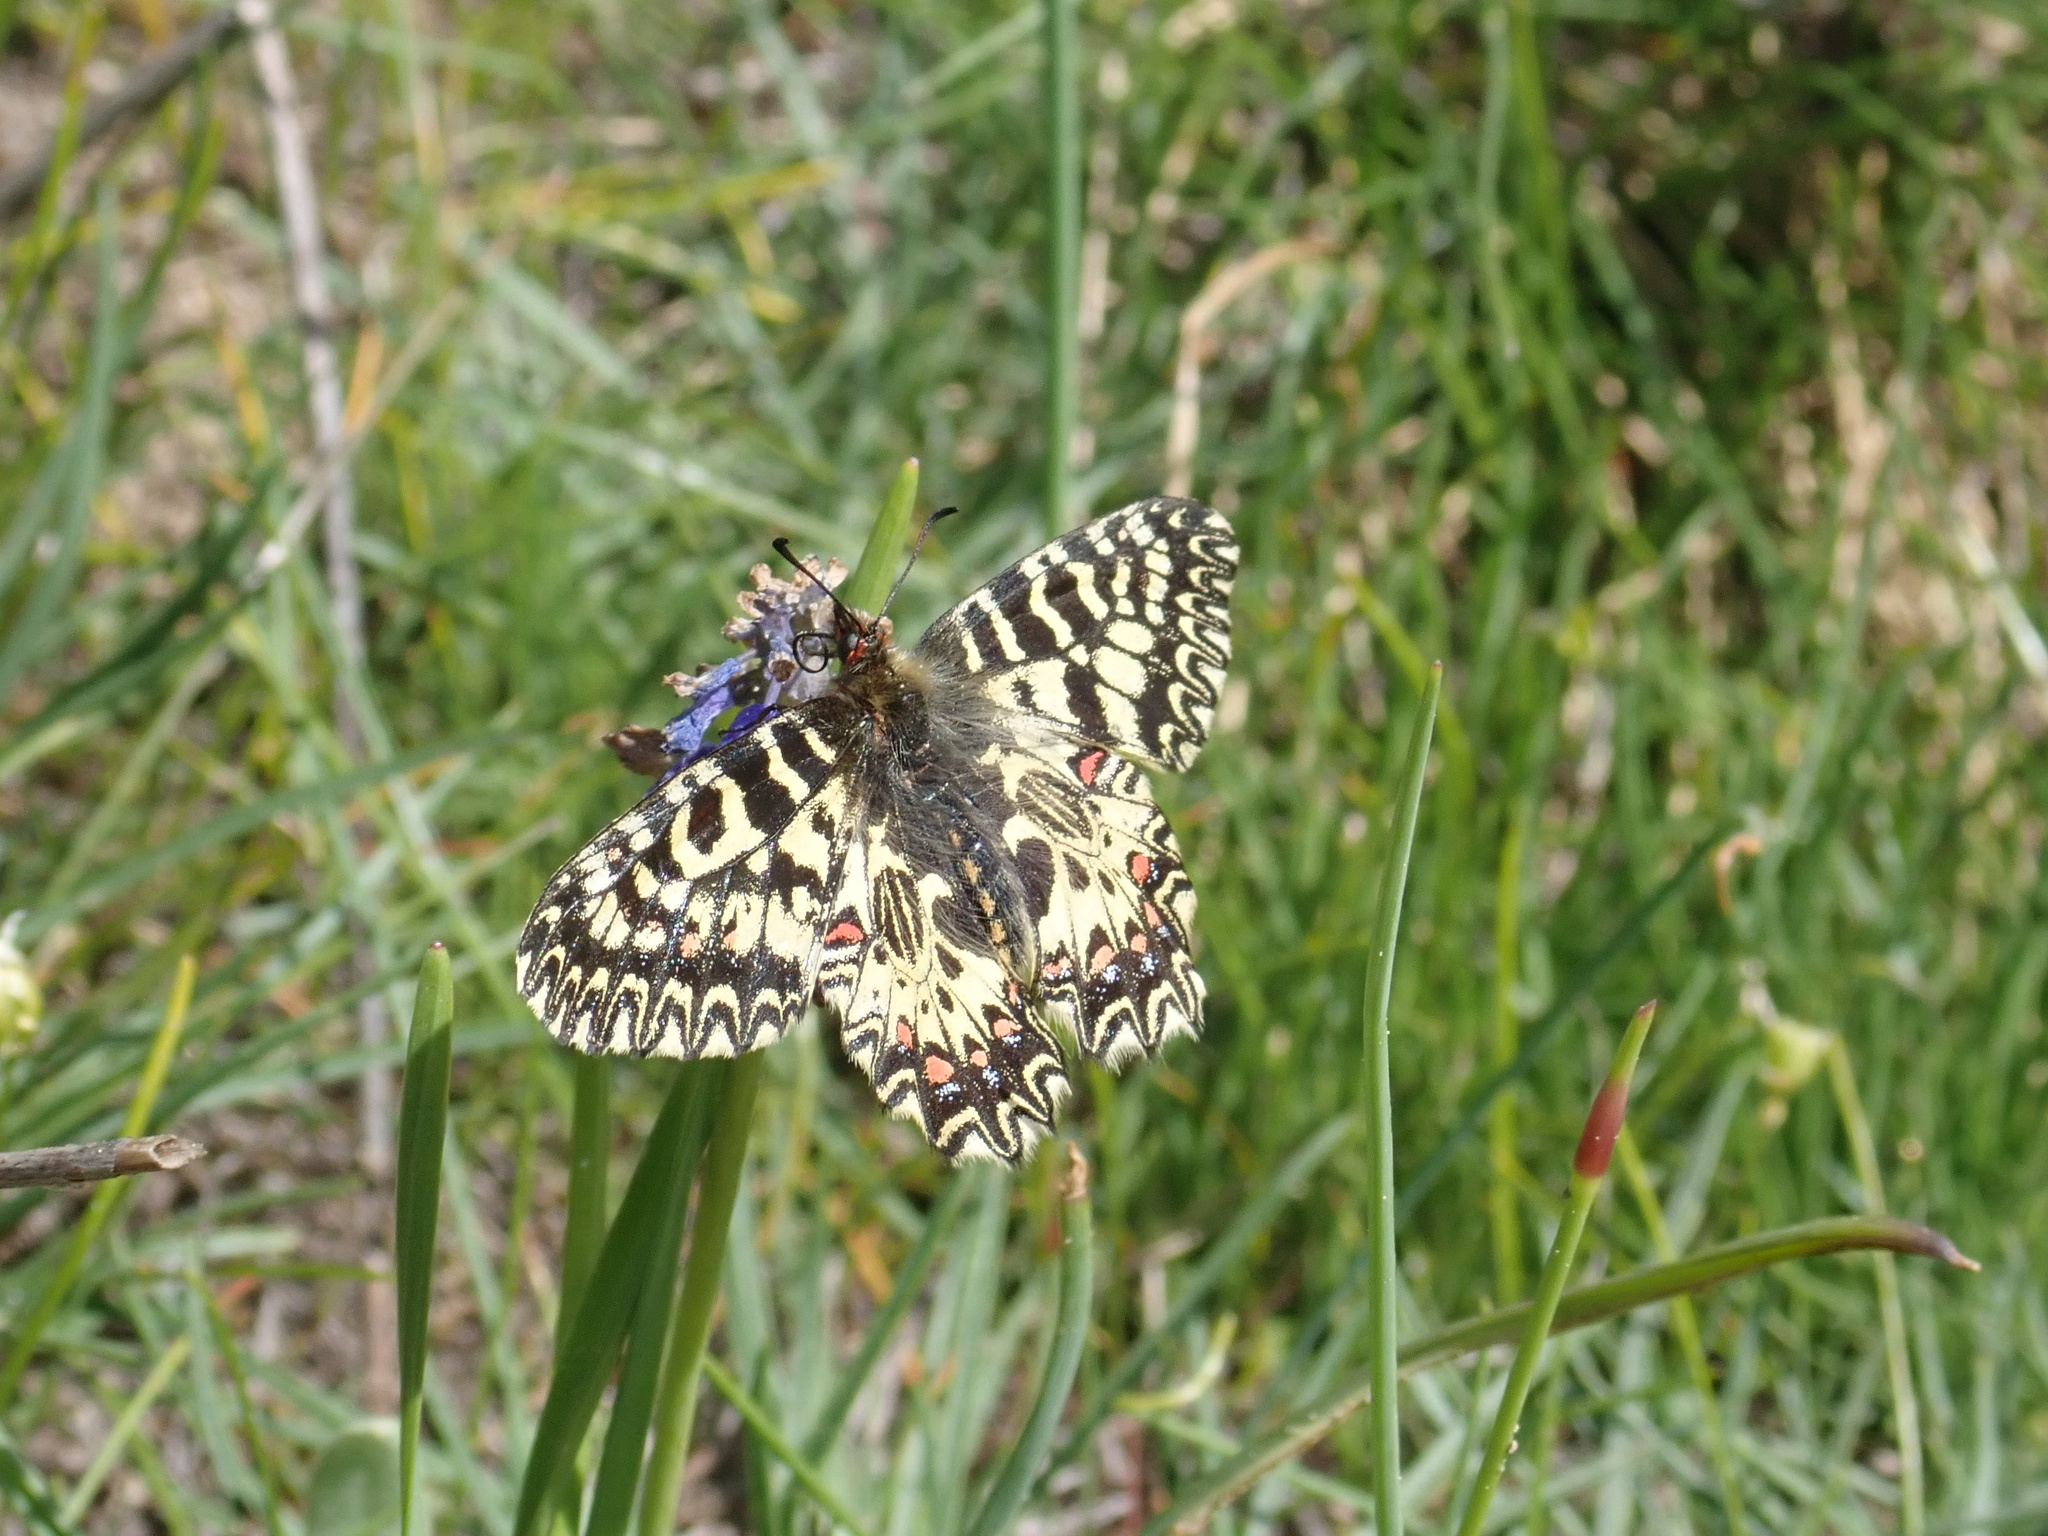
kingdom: Animalia
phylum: Arthropoda
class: Insecta
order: Lepidoptera
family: Papilionidae
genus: Zerynthia
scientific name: Zerynthia polyxena
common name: Southern festoon
